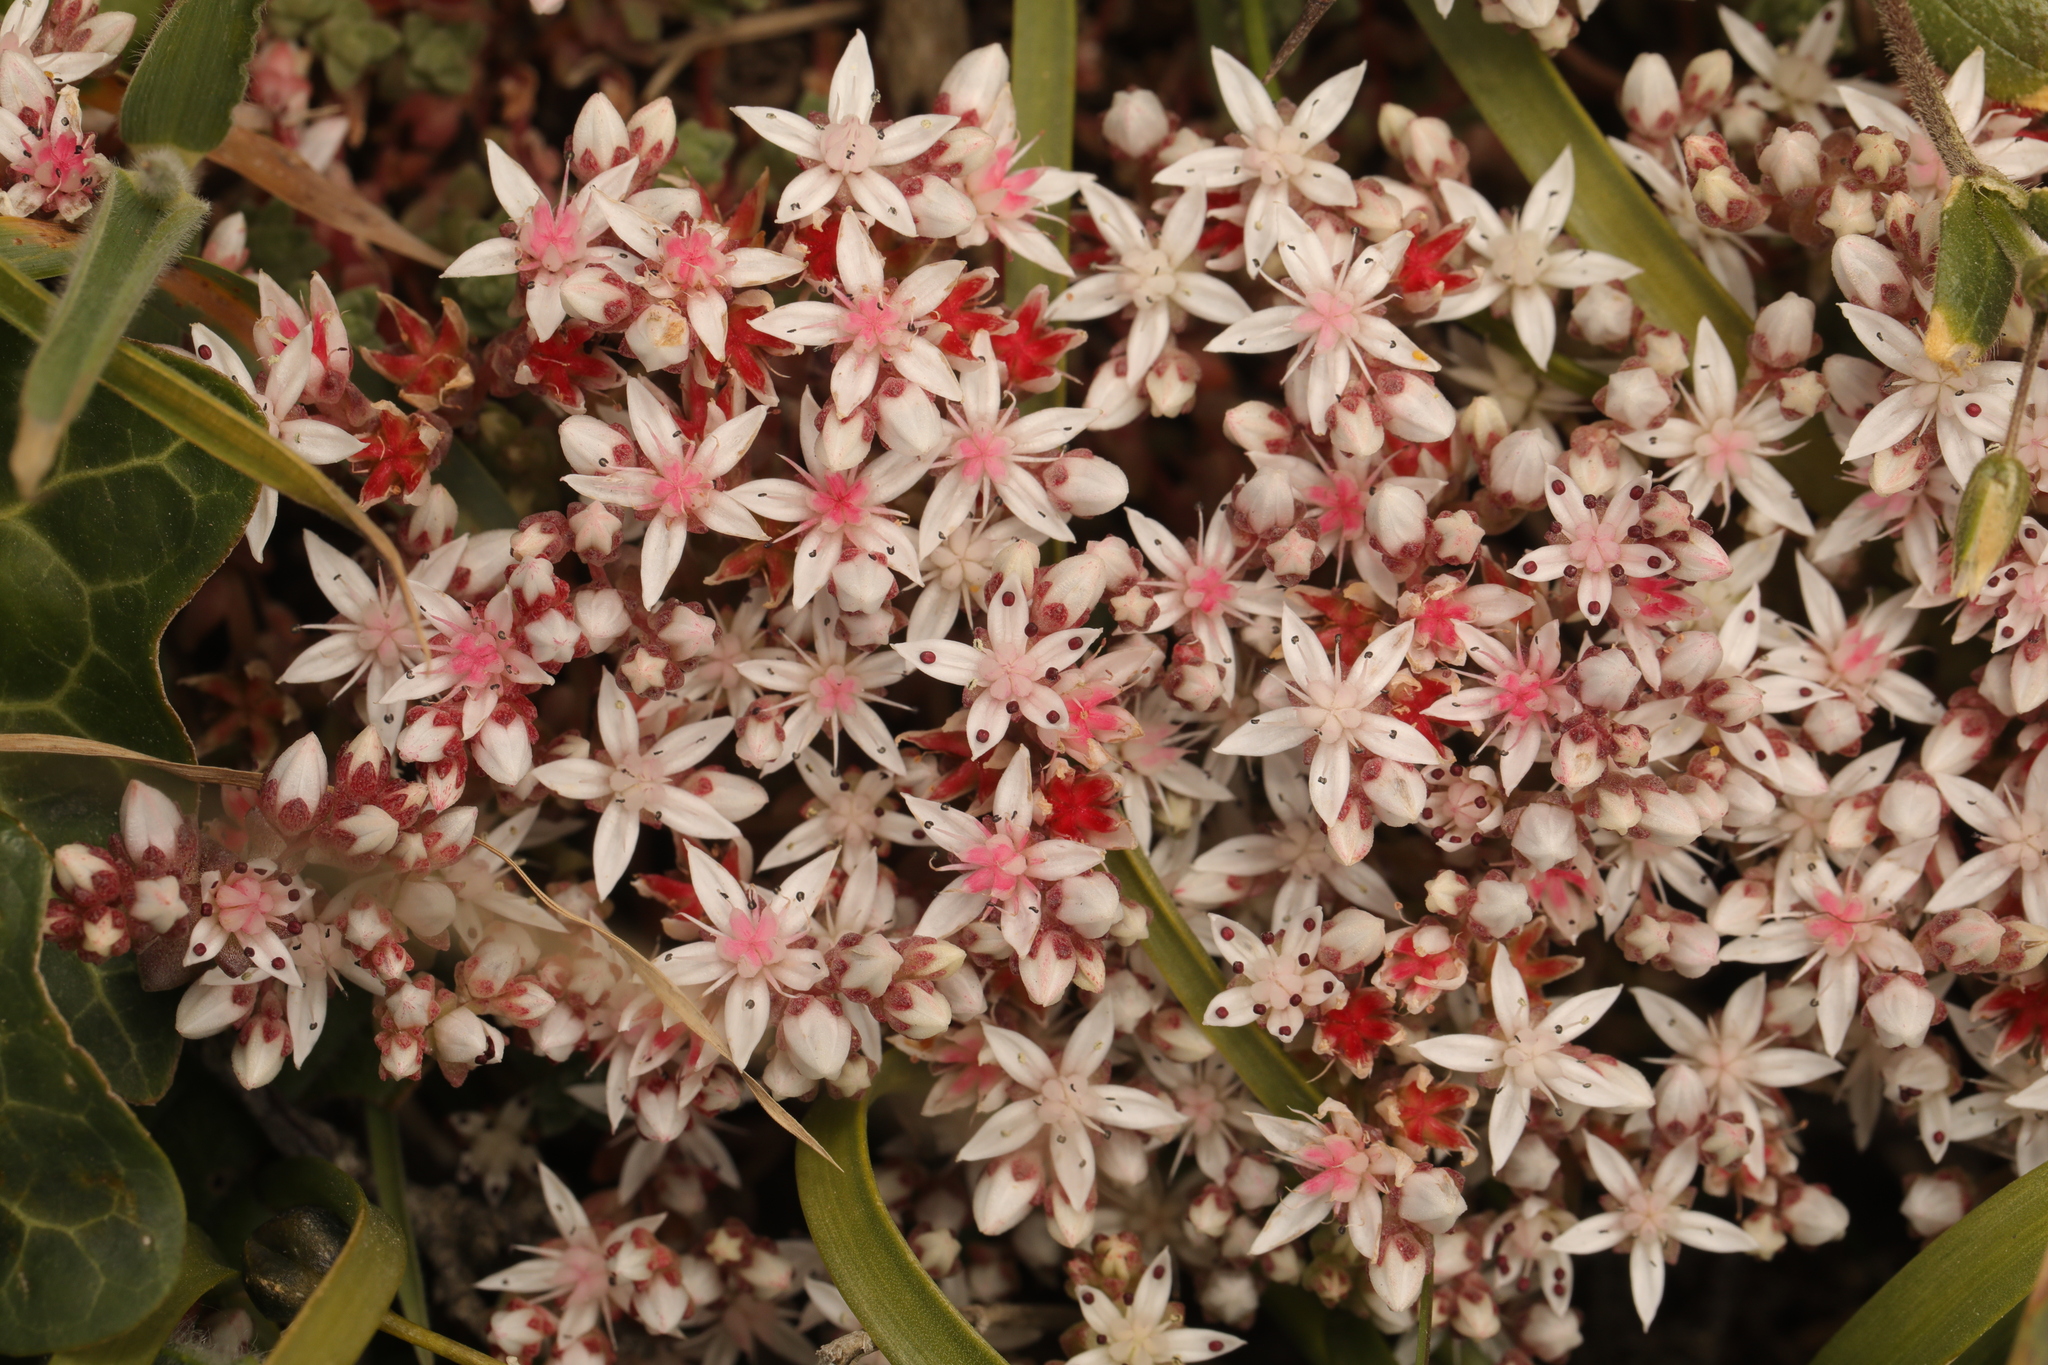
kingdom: Plantae
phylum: Tracheophyta
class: Magnoliopsida
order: Saxifragales
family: Crassulaceae
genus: Sedum
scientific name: Sedum anglicum
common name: English stonecrop
